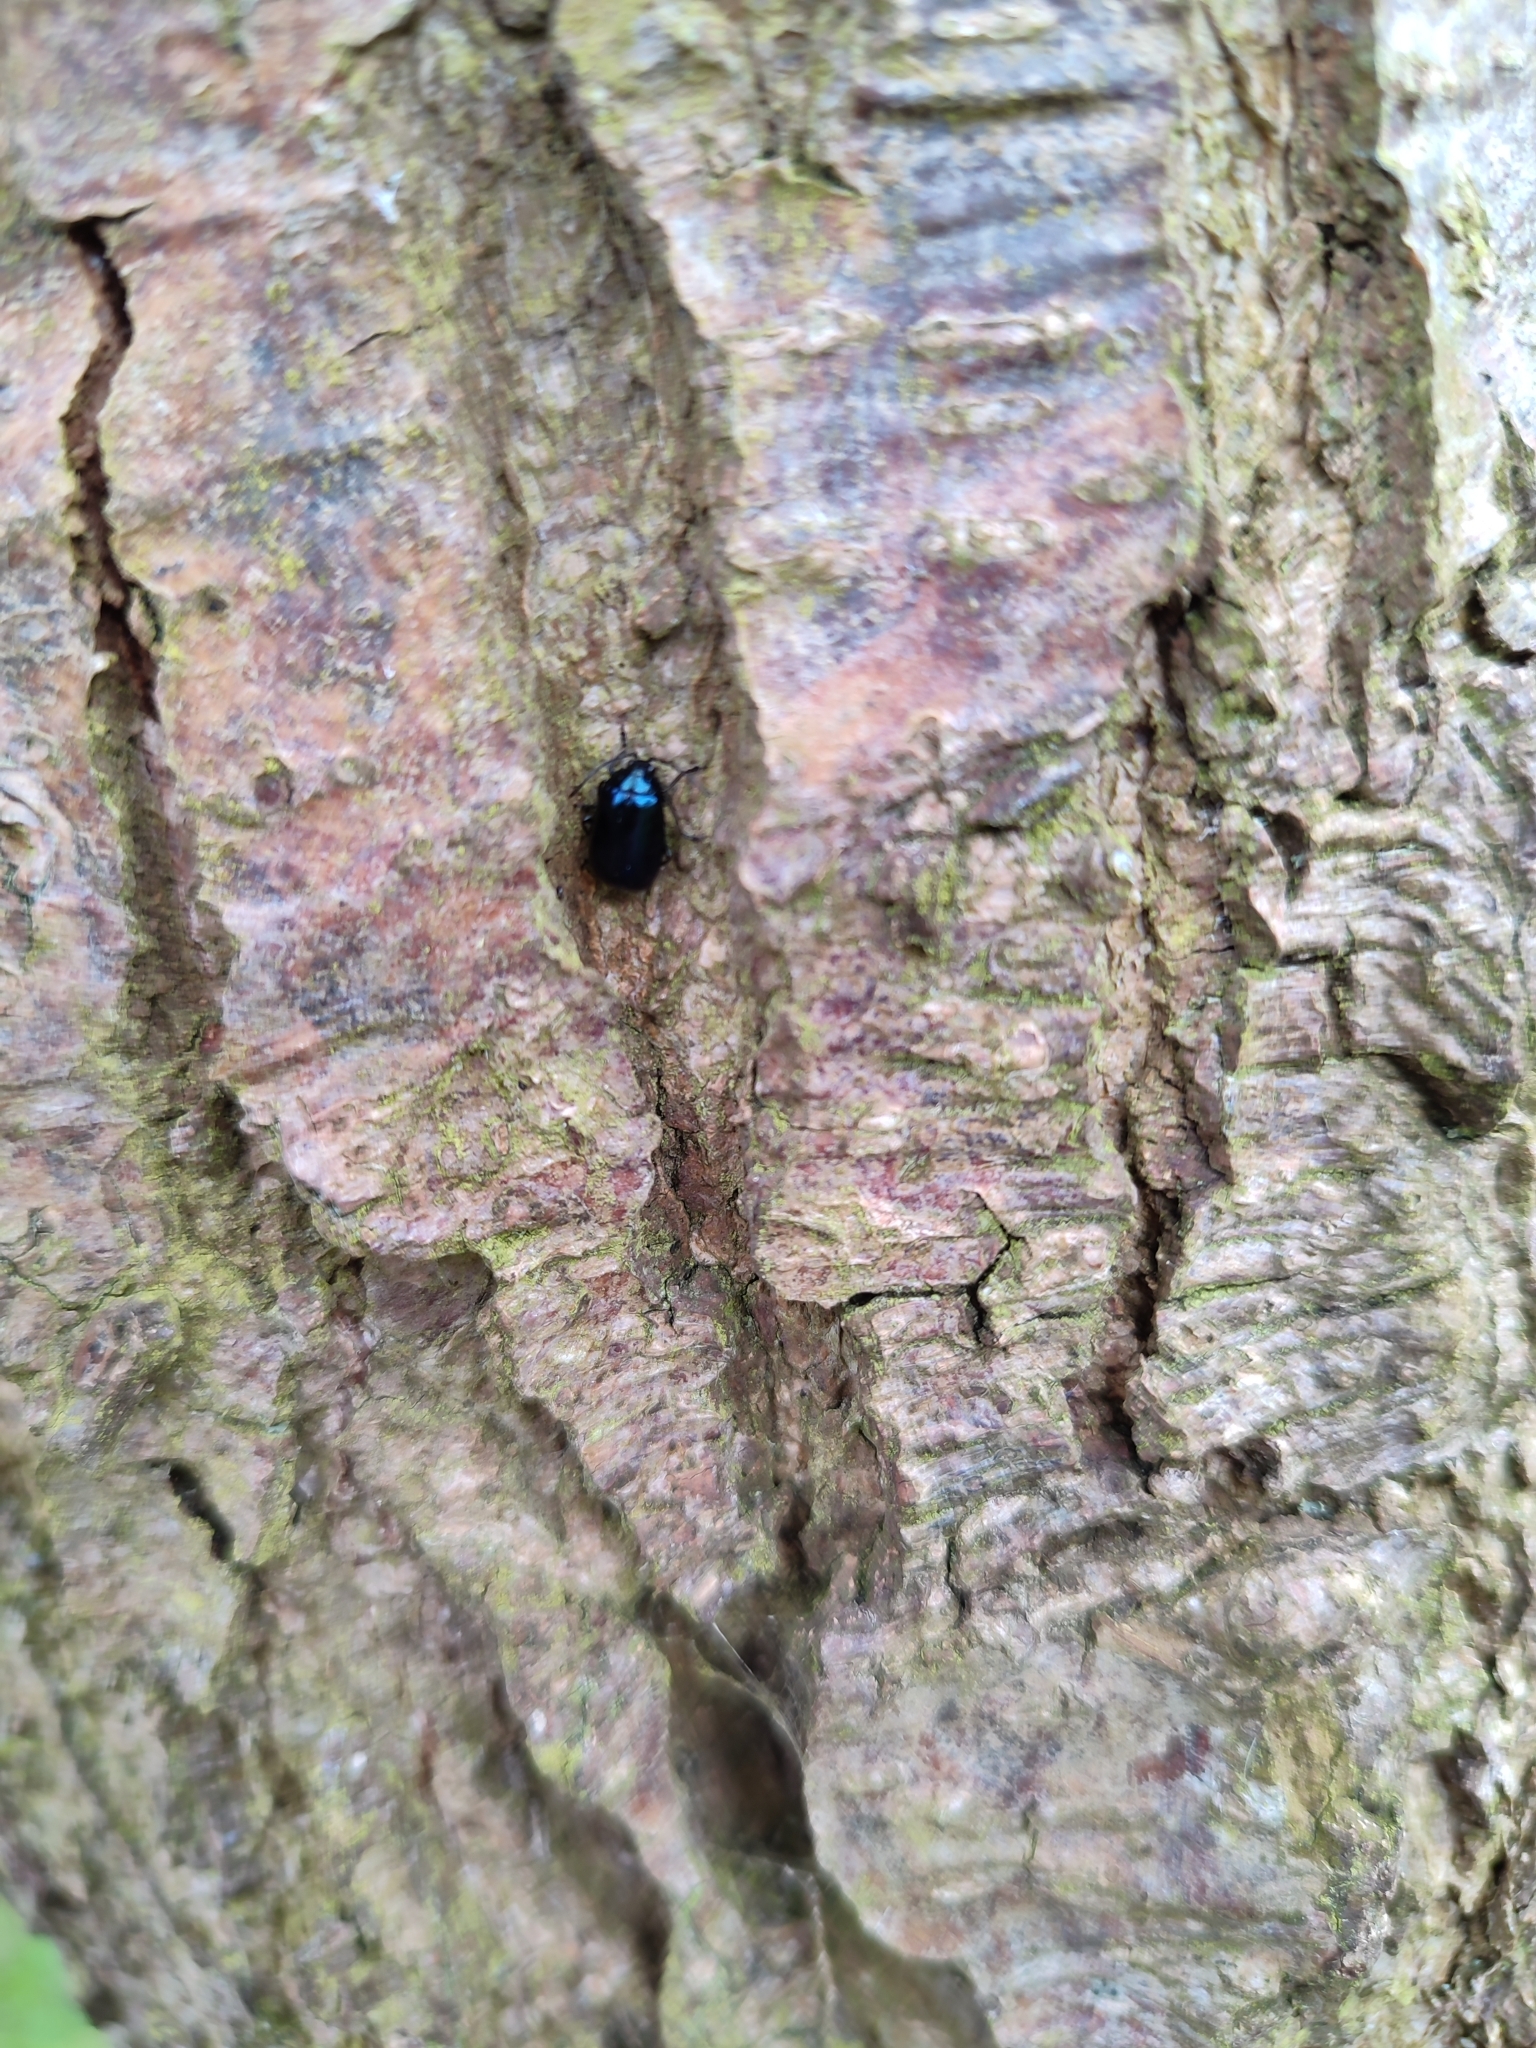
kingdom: Animalia
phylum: Arthropoda
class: Insecta
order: Coleoptera
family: Chrysomelidae
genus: Agelastica
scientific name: Agelastica alni
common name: Alder leaf beetle
